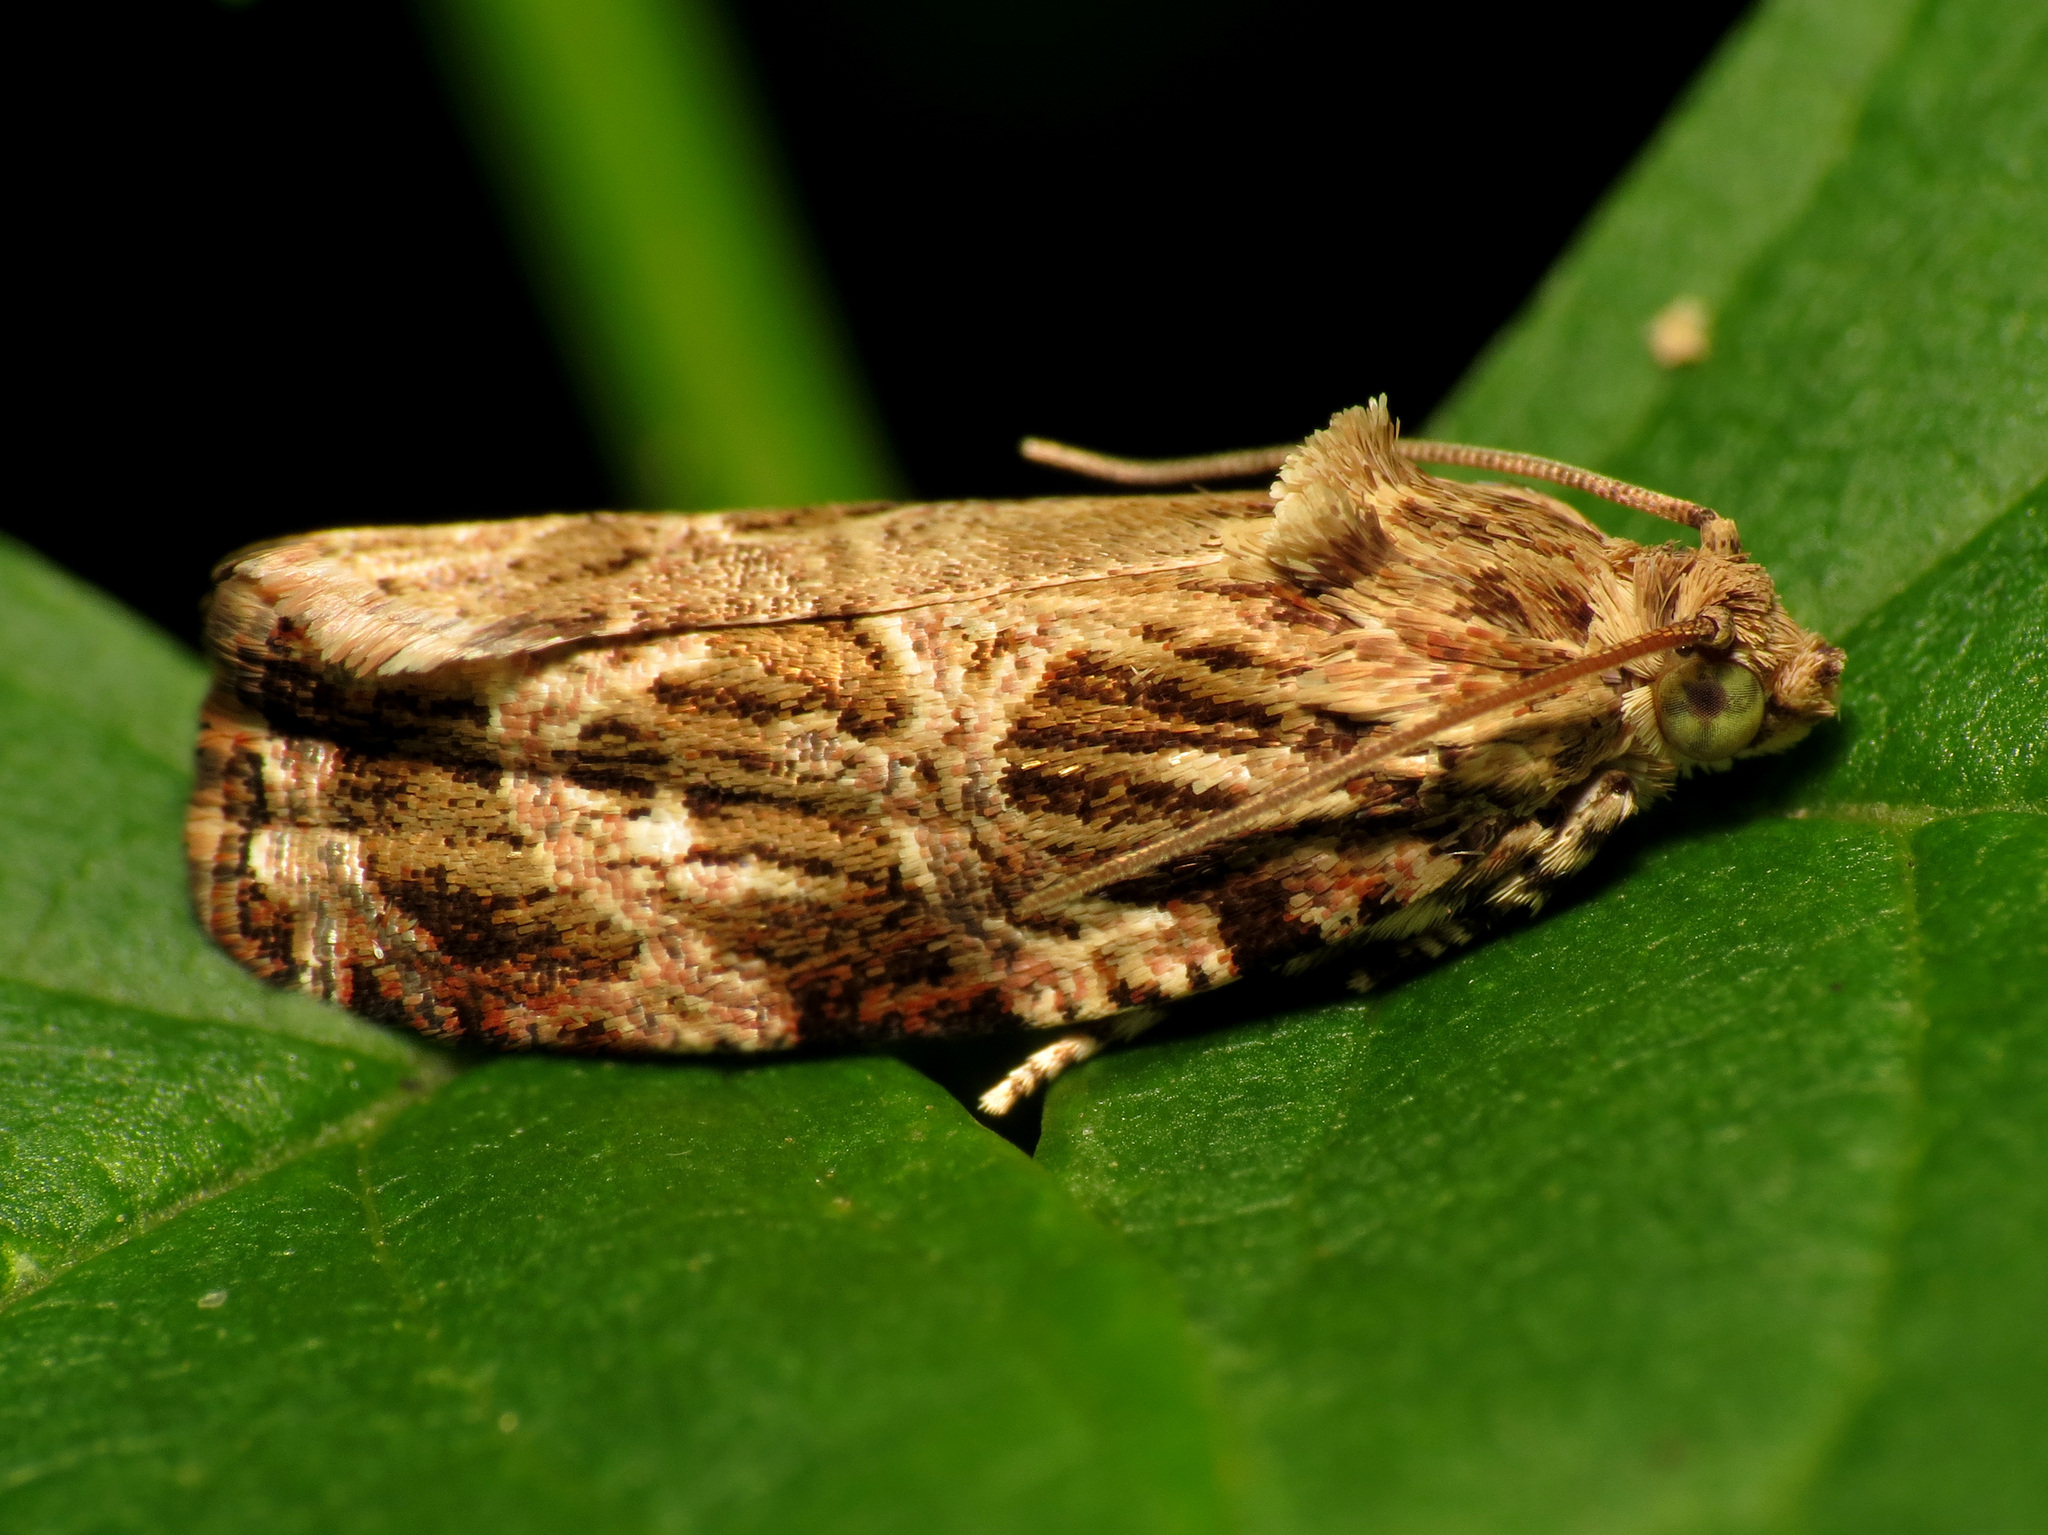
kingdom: Animalia
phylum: Arthropoda
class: Insecta
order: Lepidoptera
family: Tortricidae
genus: Phaecasiophora
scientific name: Phaecasiophora confixana
